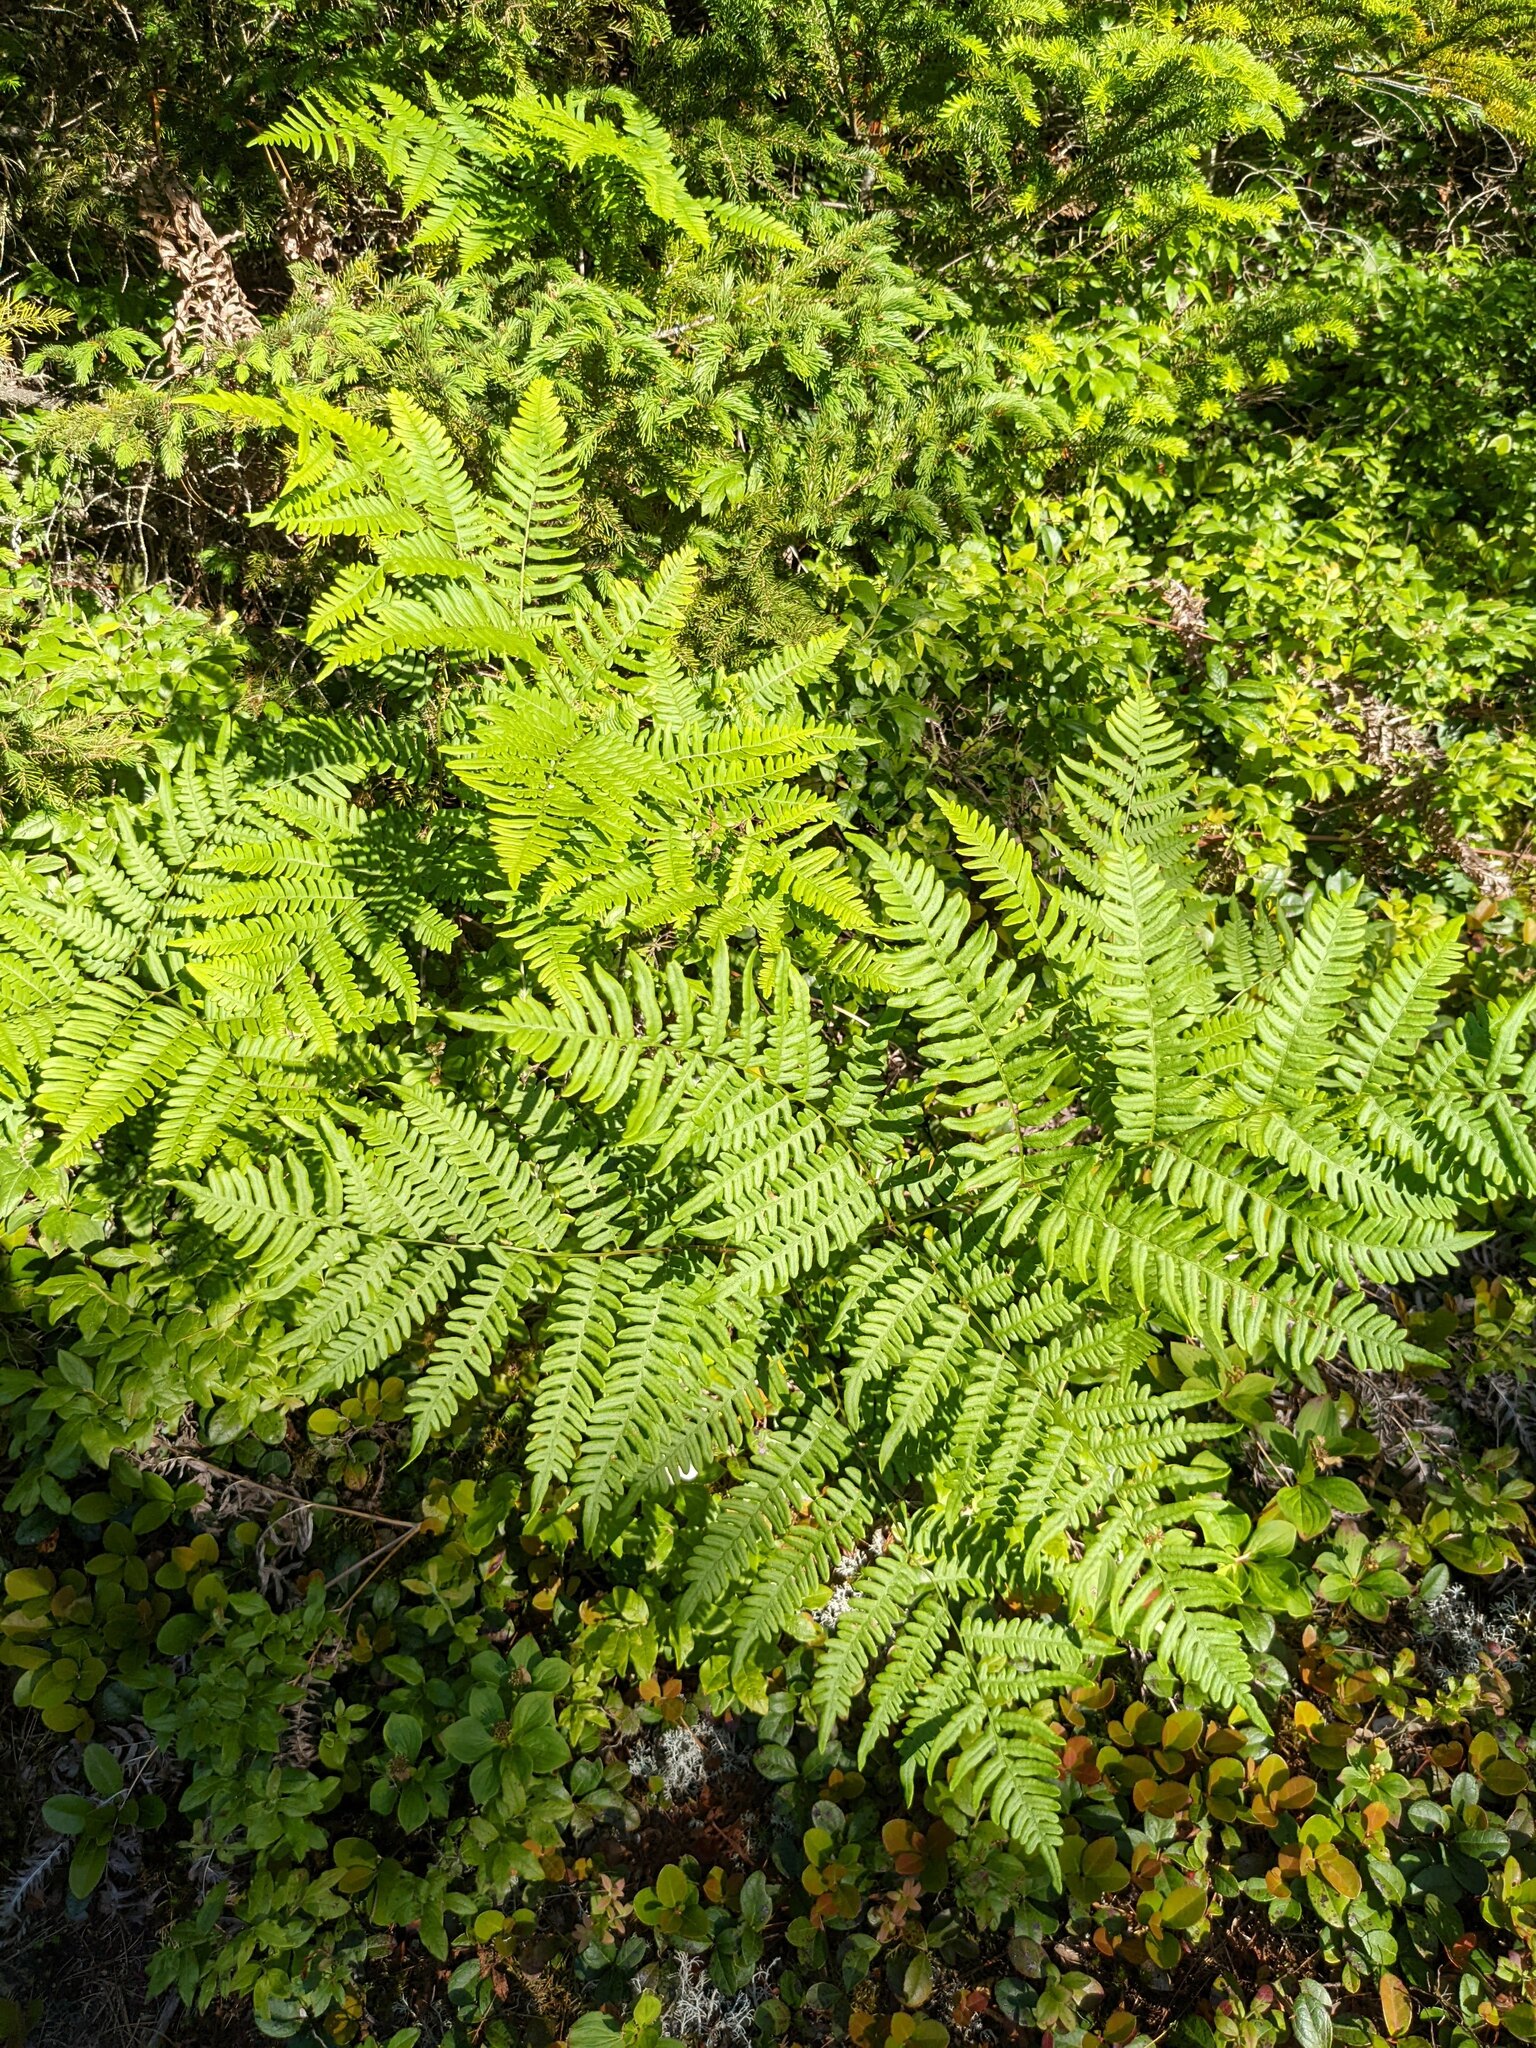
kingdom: Plantae
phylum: Tracheophyta
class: Polypodiopsida
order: Polypodiales
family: Dennstaedtiaceae
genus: Pteridium
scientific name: Pteridium aquilinum
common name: Bracken
